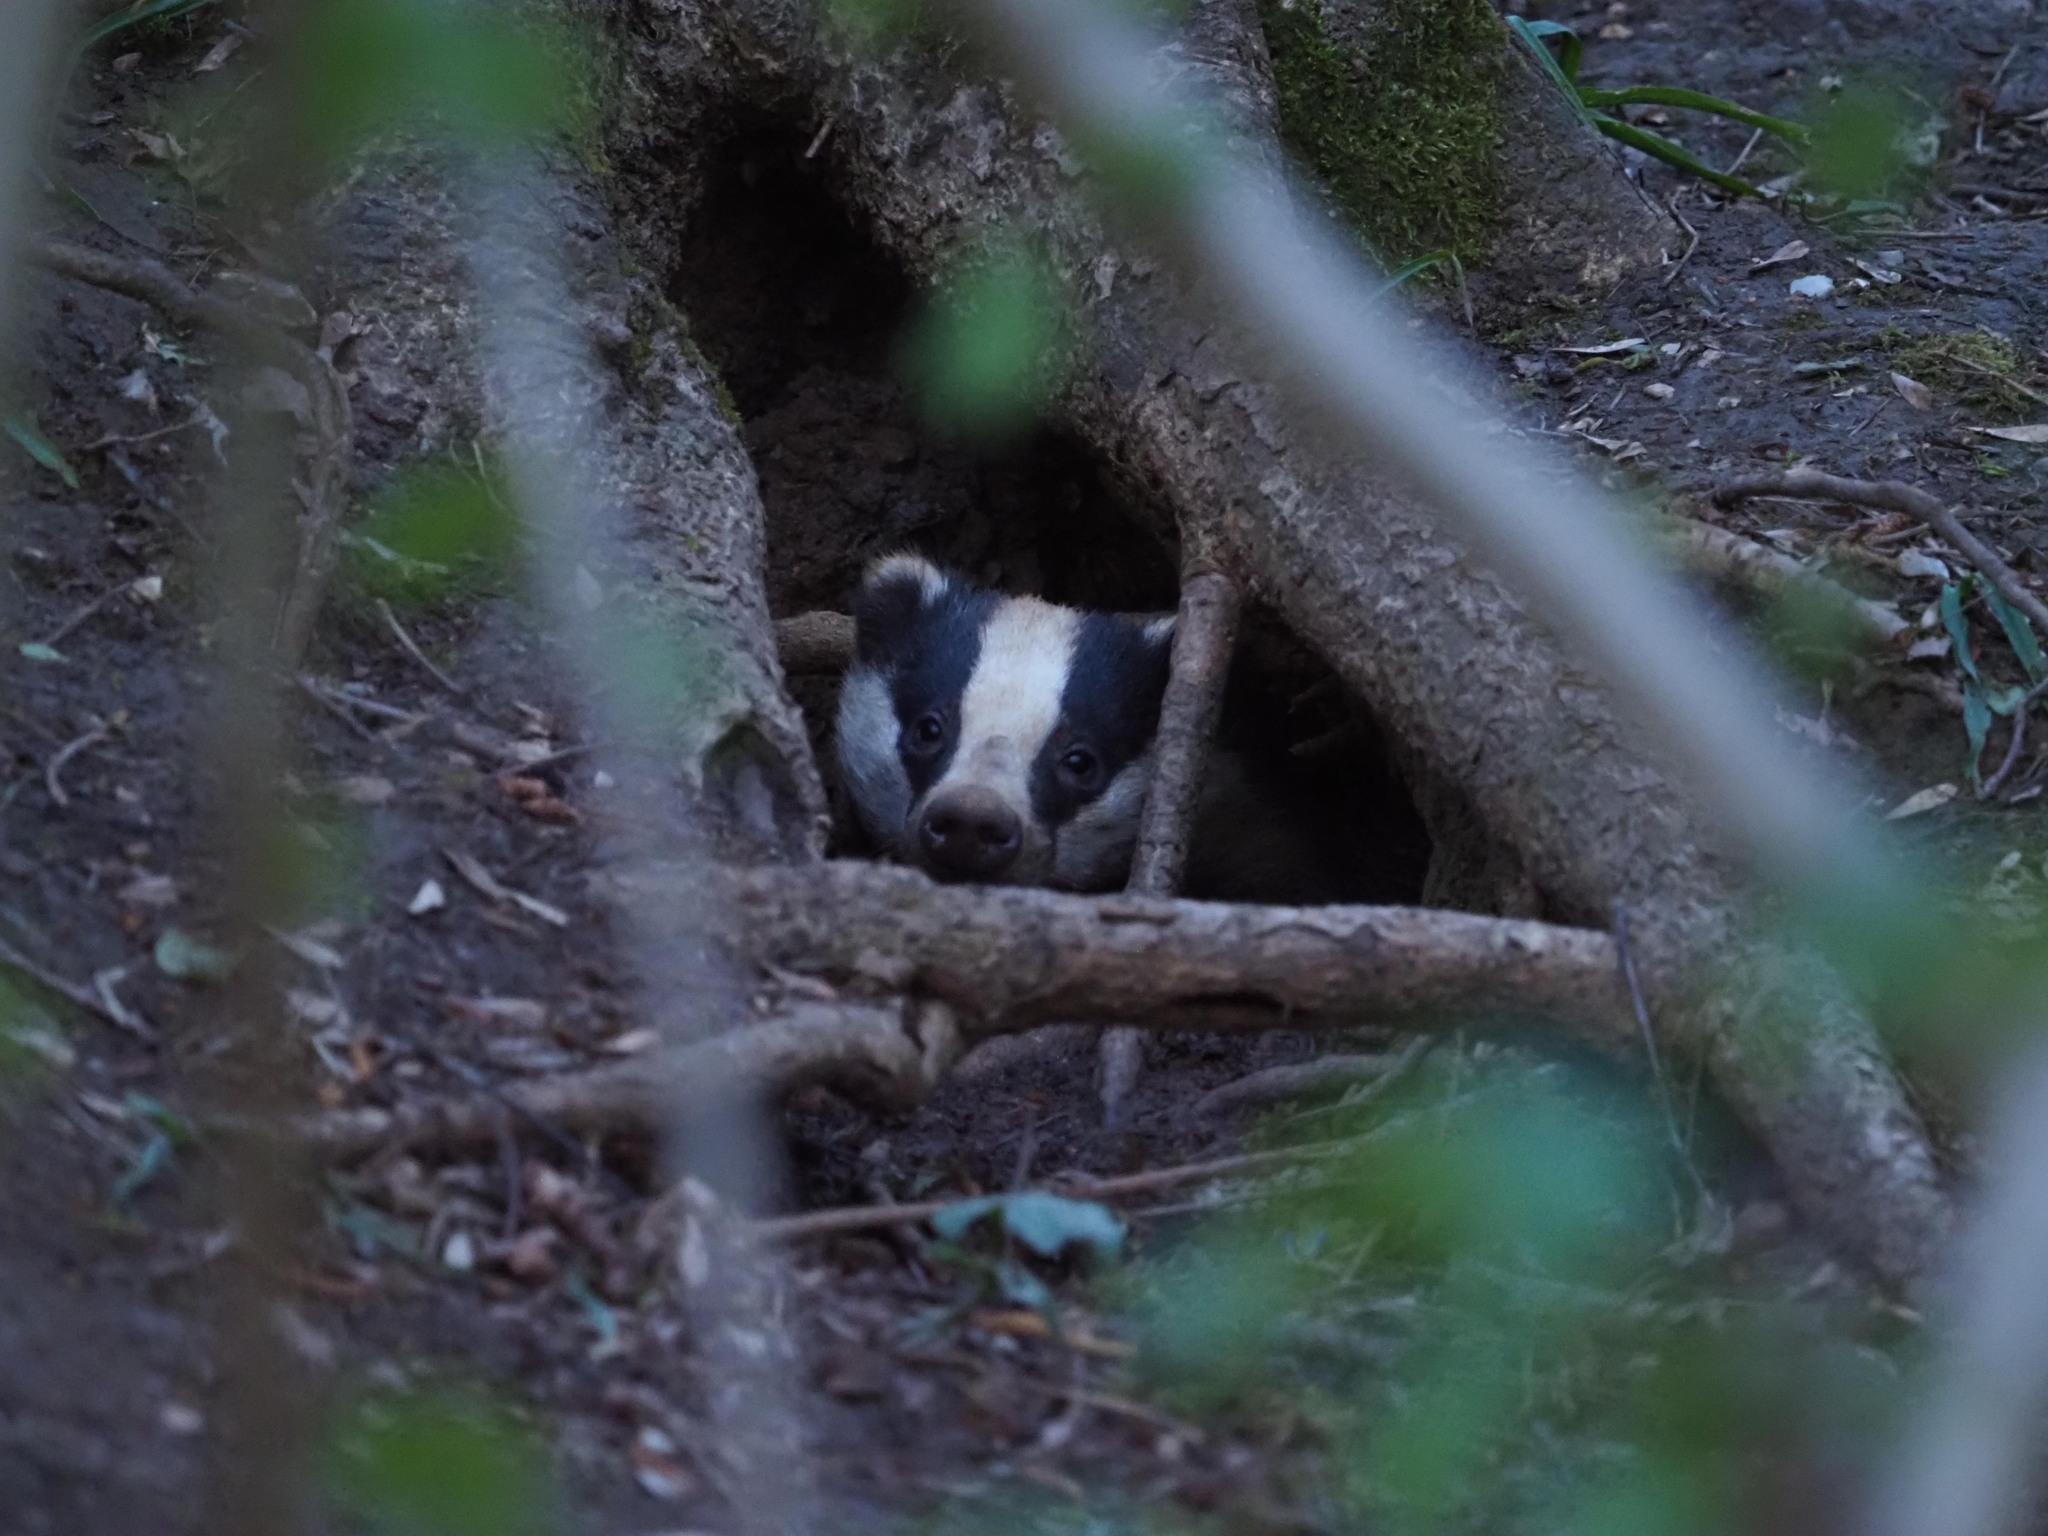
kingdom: Animalia
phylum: Chordata
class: Mammalia
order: Carnivora
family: Mustelidae
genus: Meles
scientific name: Meles meles
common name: Eurasian badger
